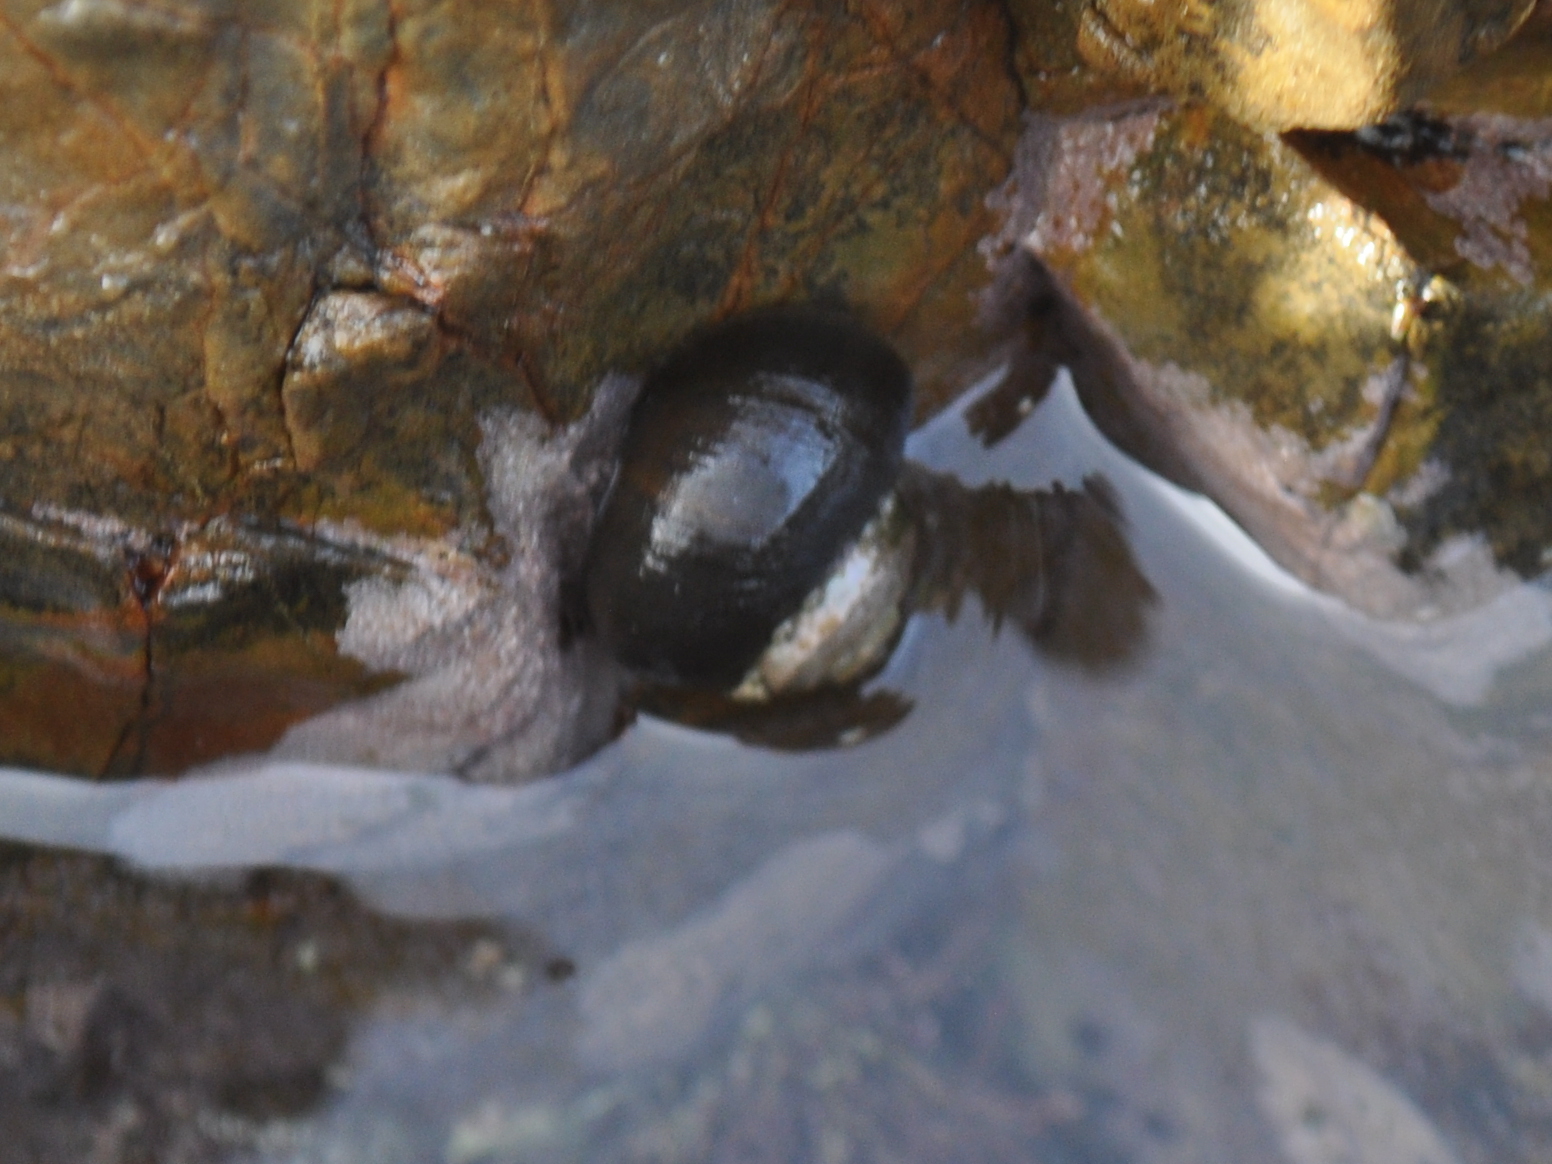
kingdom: Animalia
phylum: Mollusca
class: Gastropoda
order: Trochida
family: Turbinidae
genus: Lunella
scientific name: Lunella smaragda
